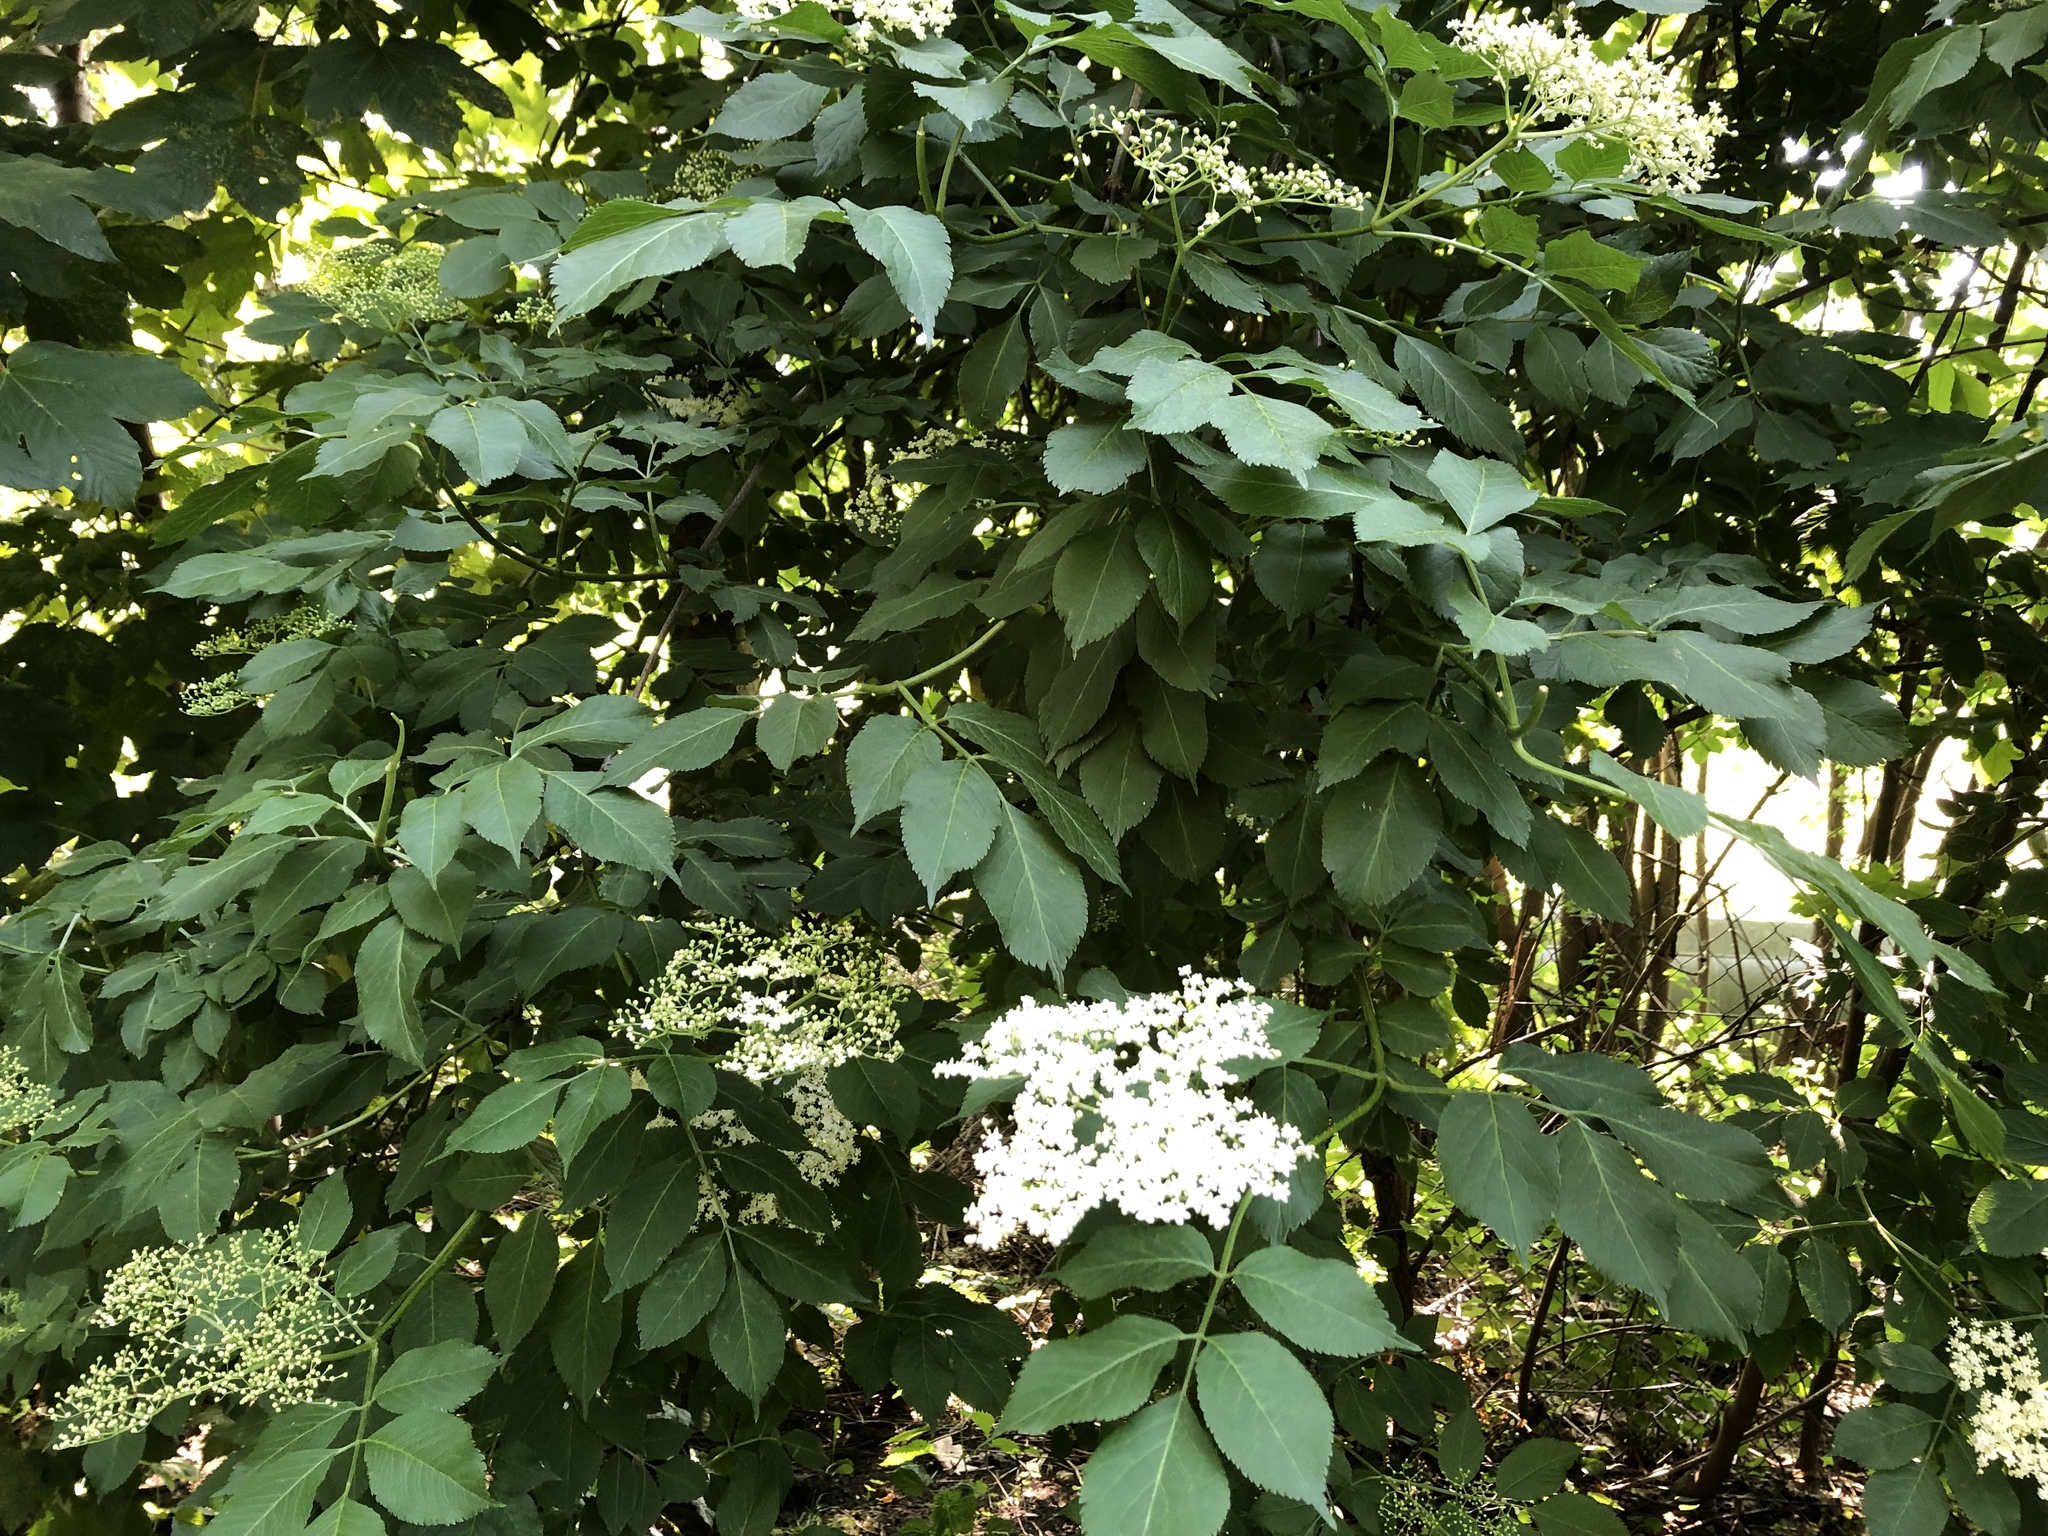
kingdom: Plantae
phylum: Tracheophyta
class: Magnoliopsida
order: Dipsacales
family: Viburnaceae
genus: Sambucus
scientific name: Sambucus nigra
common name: Elder
